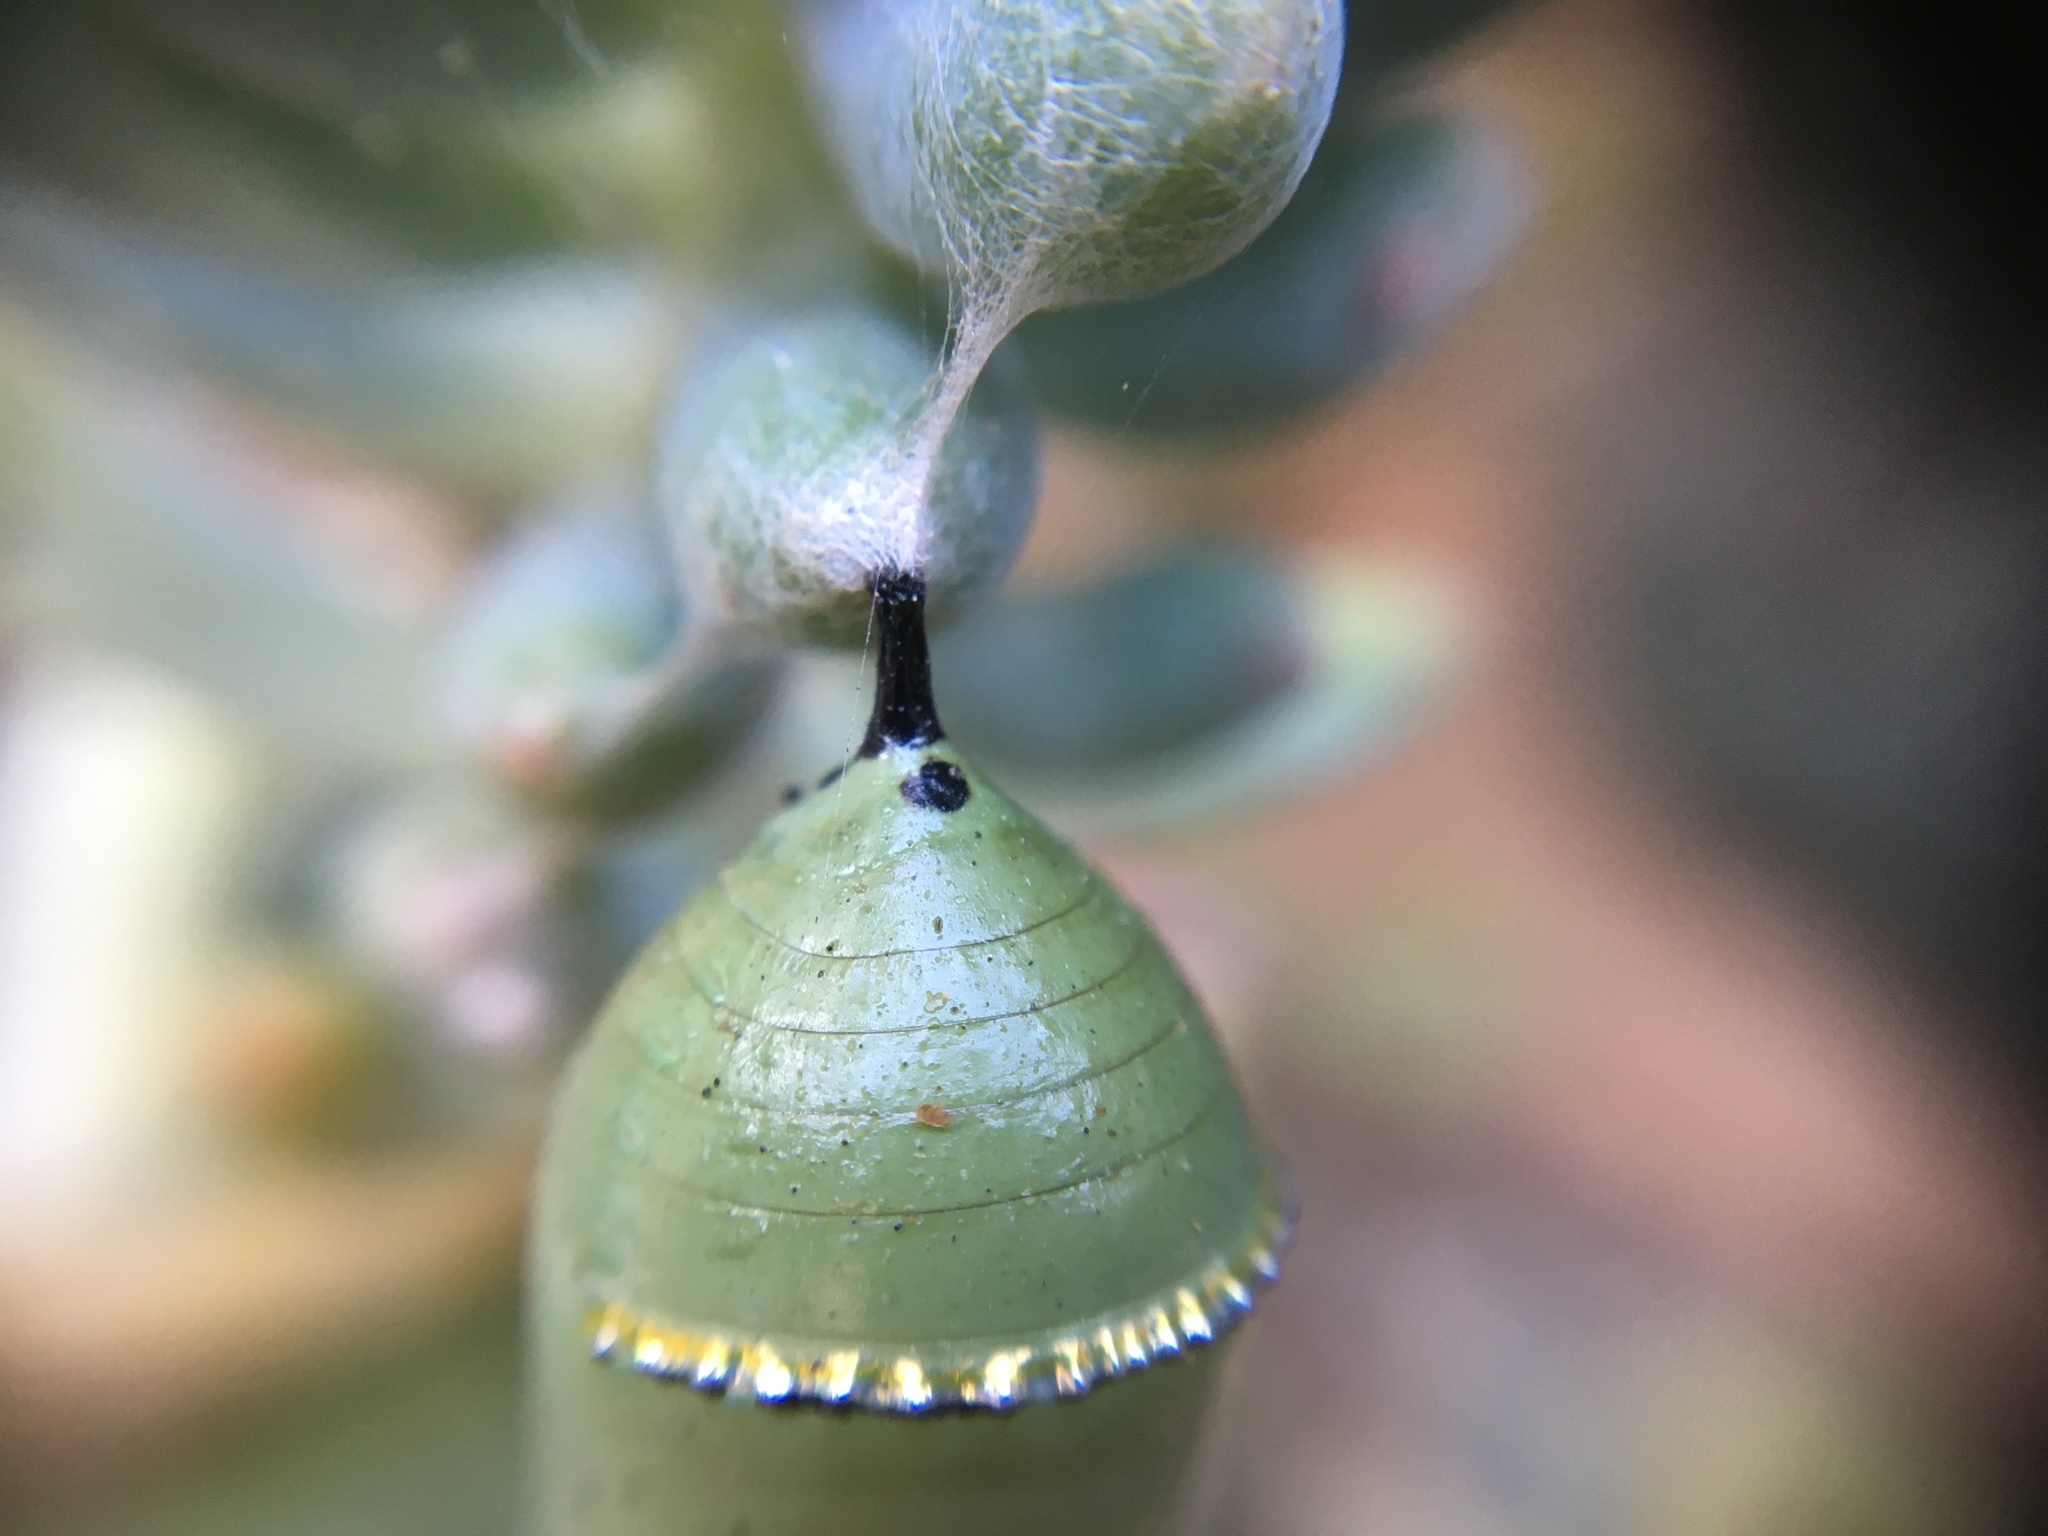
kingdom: Animalia
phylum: Arthropoda
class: Insecta
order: Lepidoptera
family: Nymphalidae
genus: Danaus
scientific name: Danaus plexippus
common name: Monarch
